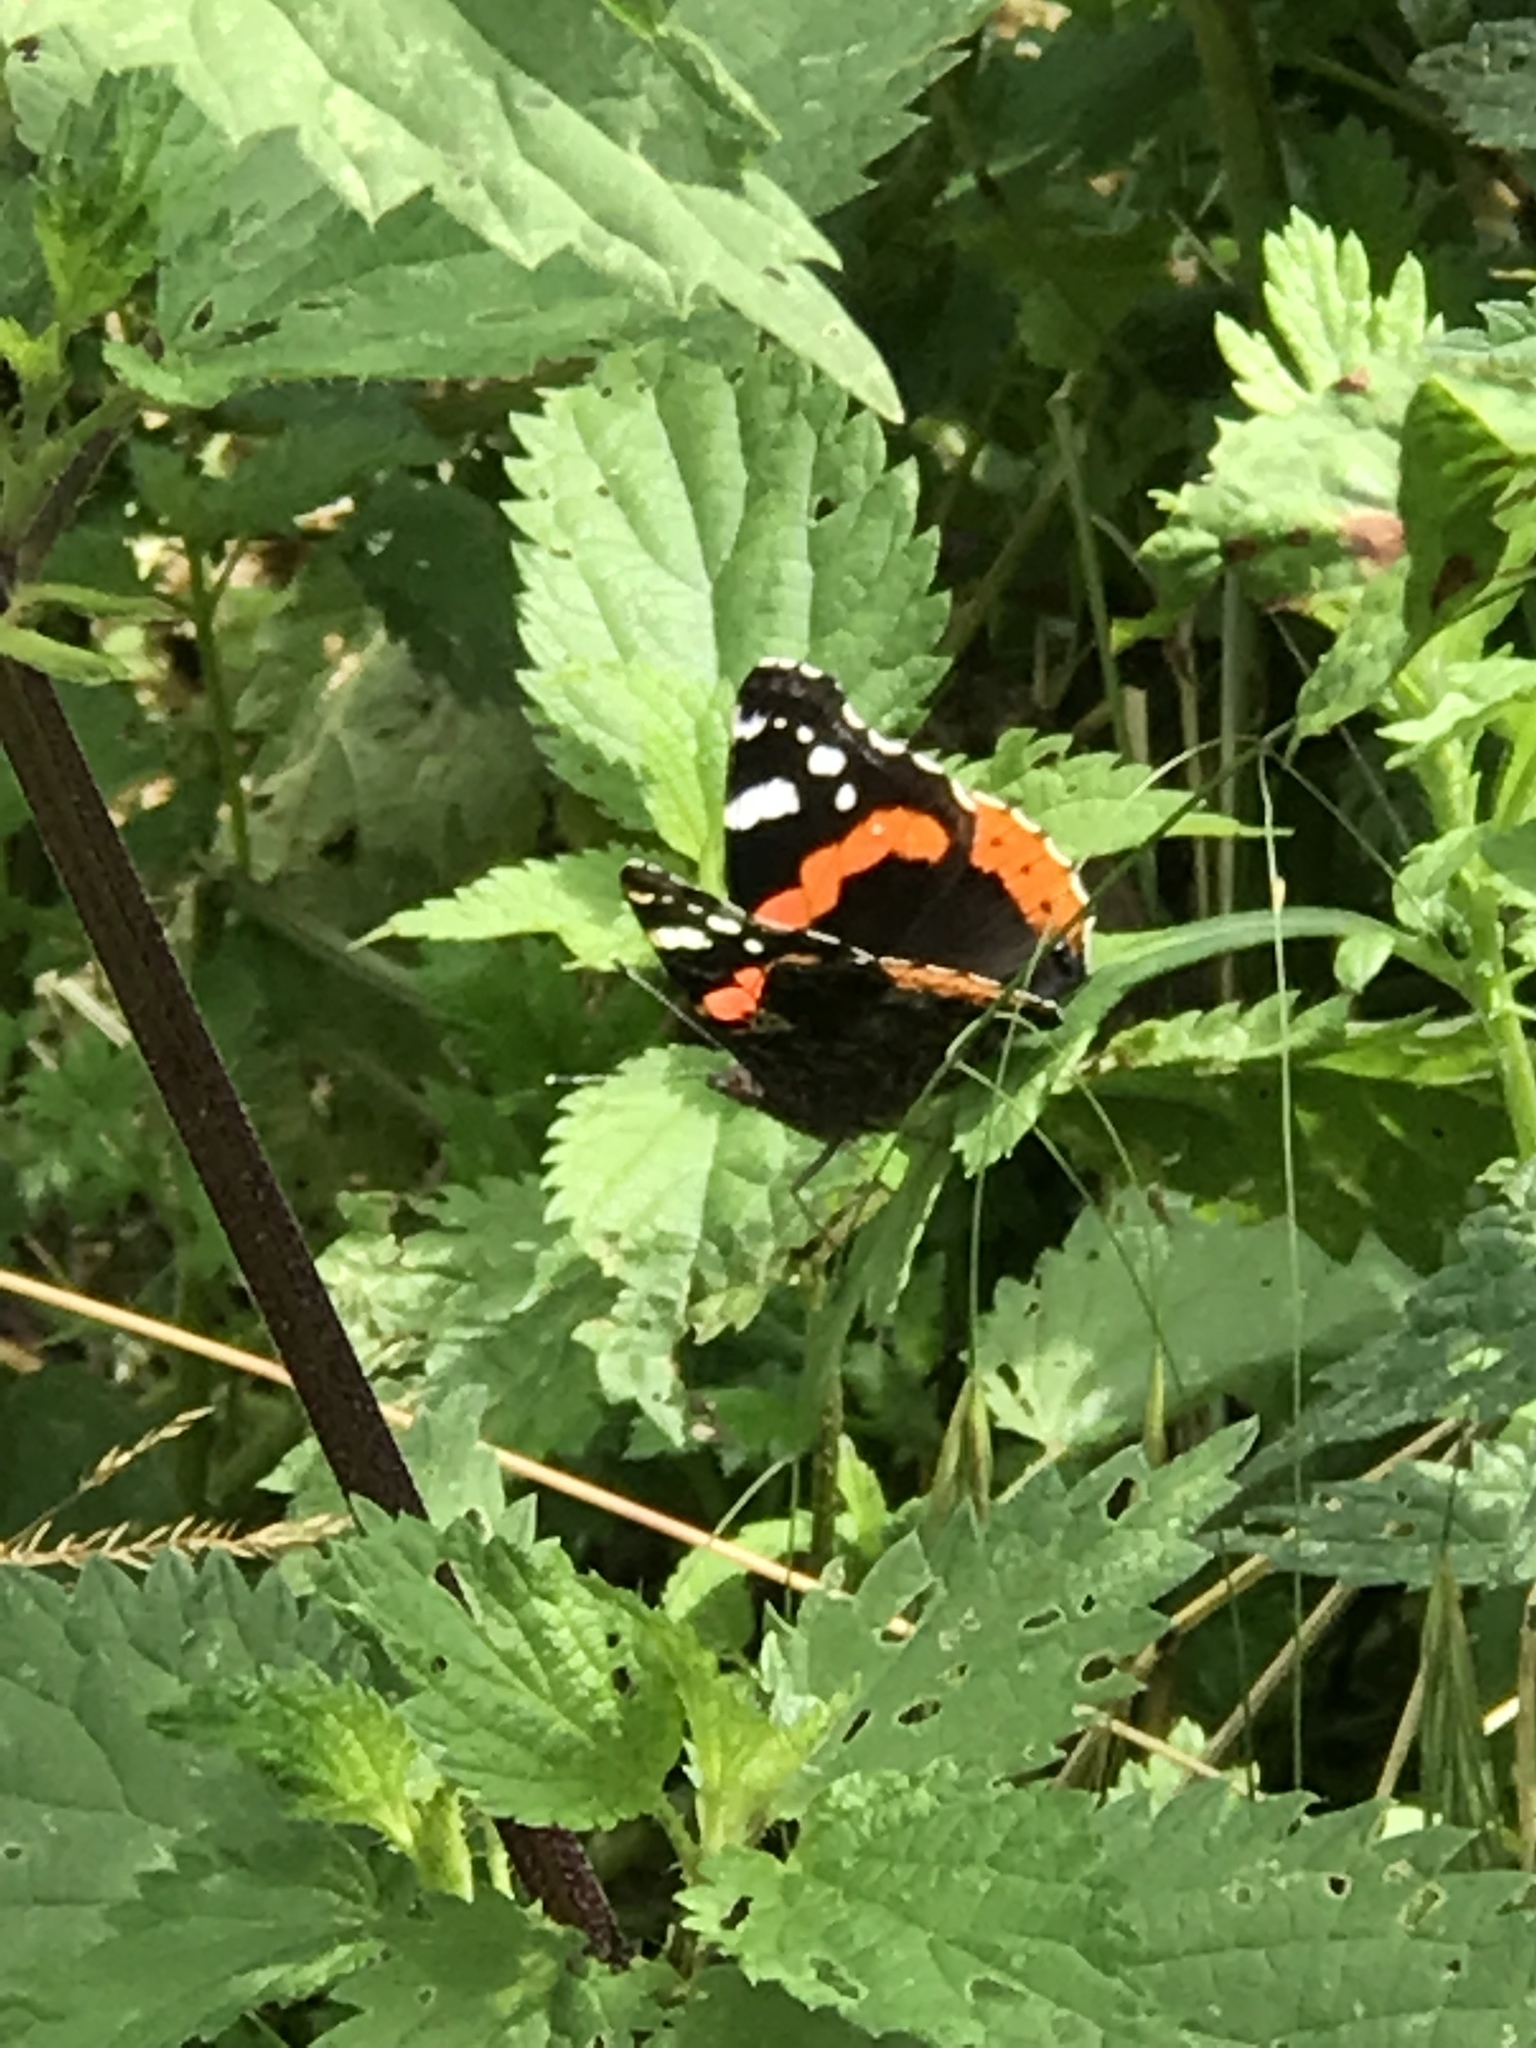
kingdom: Animalia
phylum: Arthropoda
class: Insecta
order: Lepidoptera
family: Nymphalidae
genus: Vanessa
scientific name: Vanessa atalanta
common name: Red admiral
